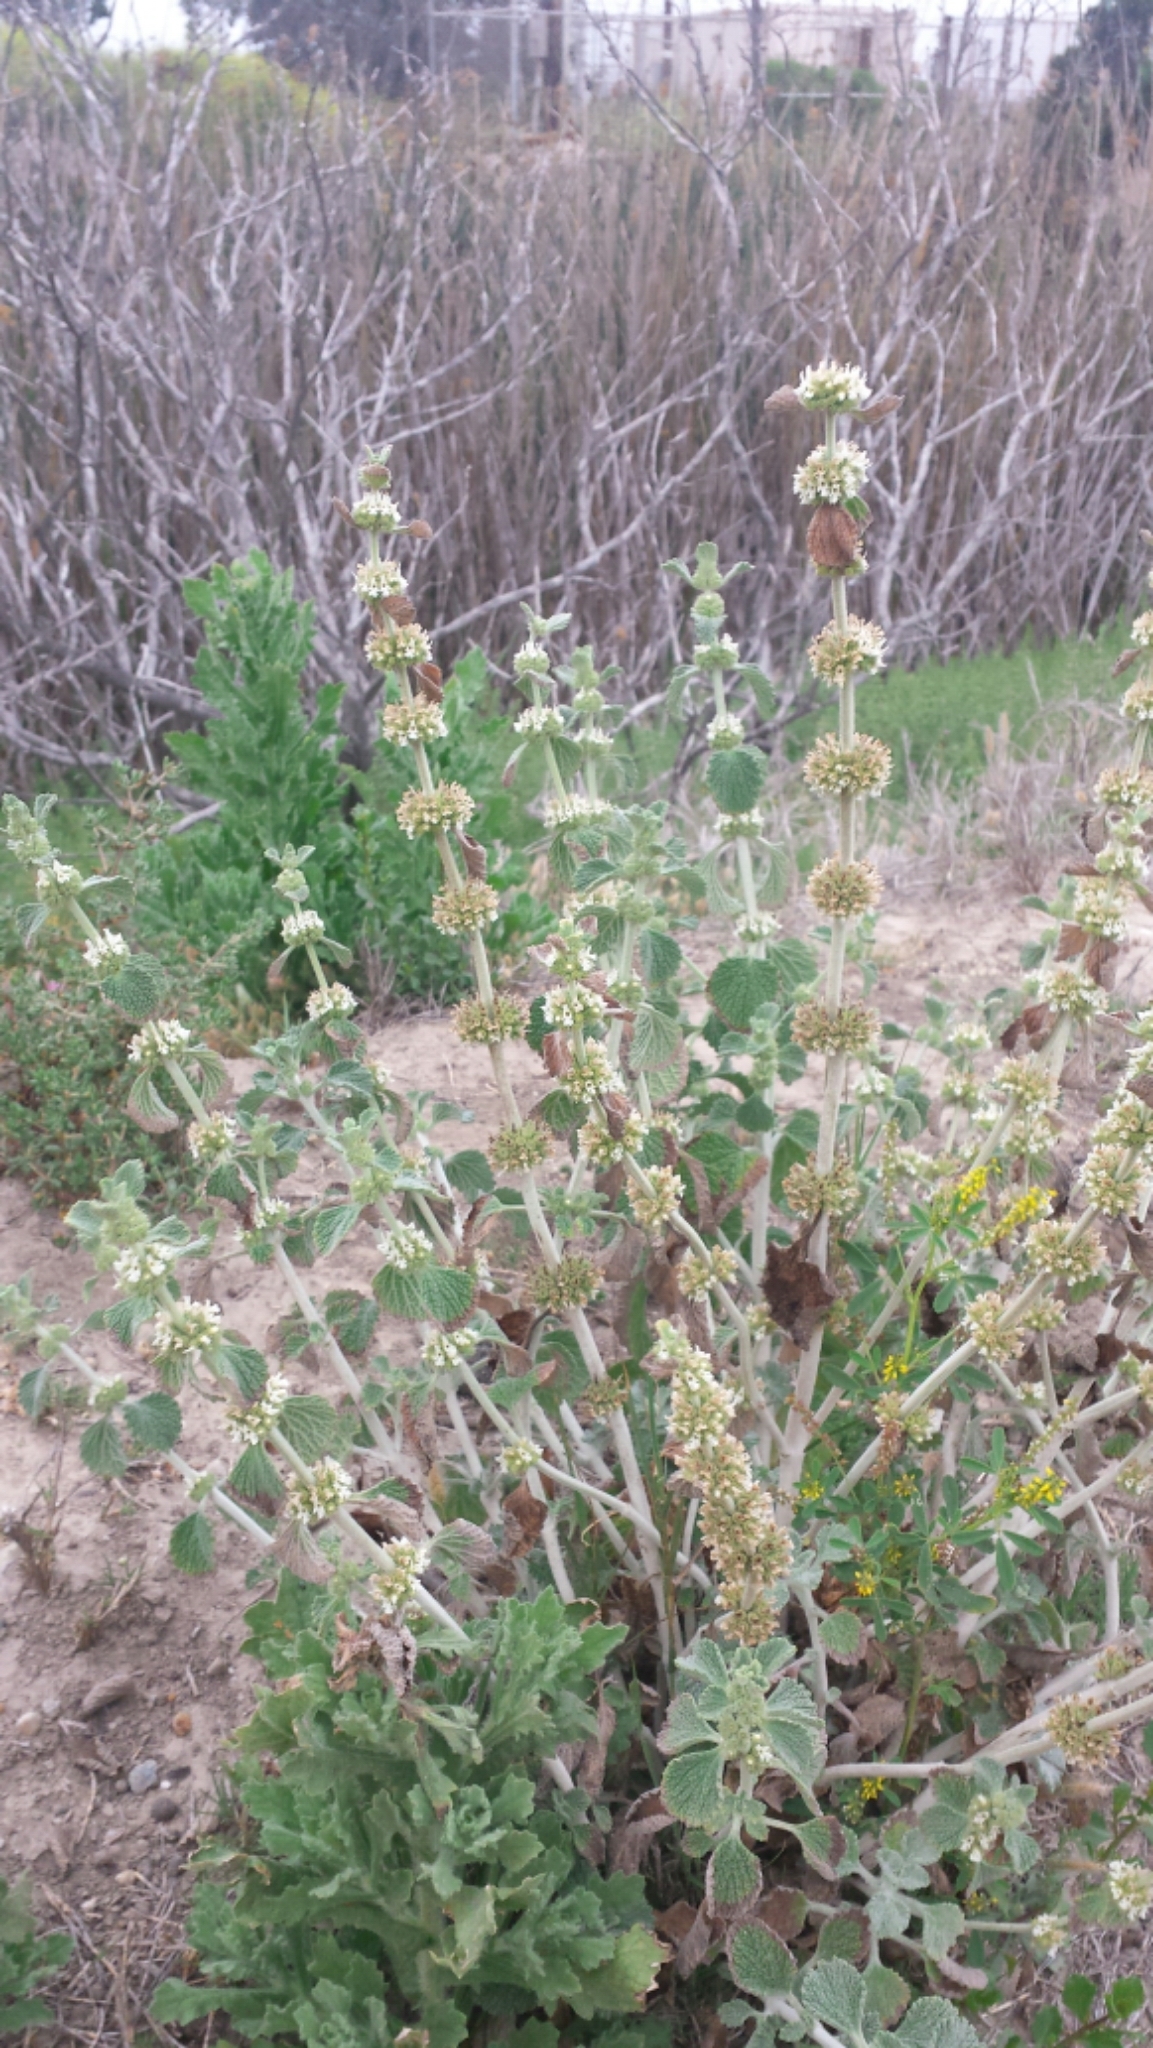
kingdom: Plantae
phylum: Tracheophyta
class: Magnoliopsida
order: Lamiales
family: Lamiaceae
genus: Marrubium
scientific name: Marrubium vulgare
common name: Horehound
